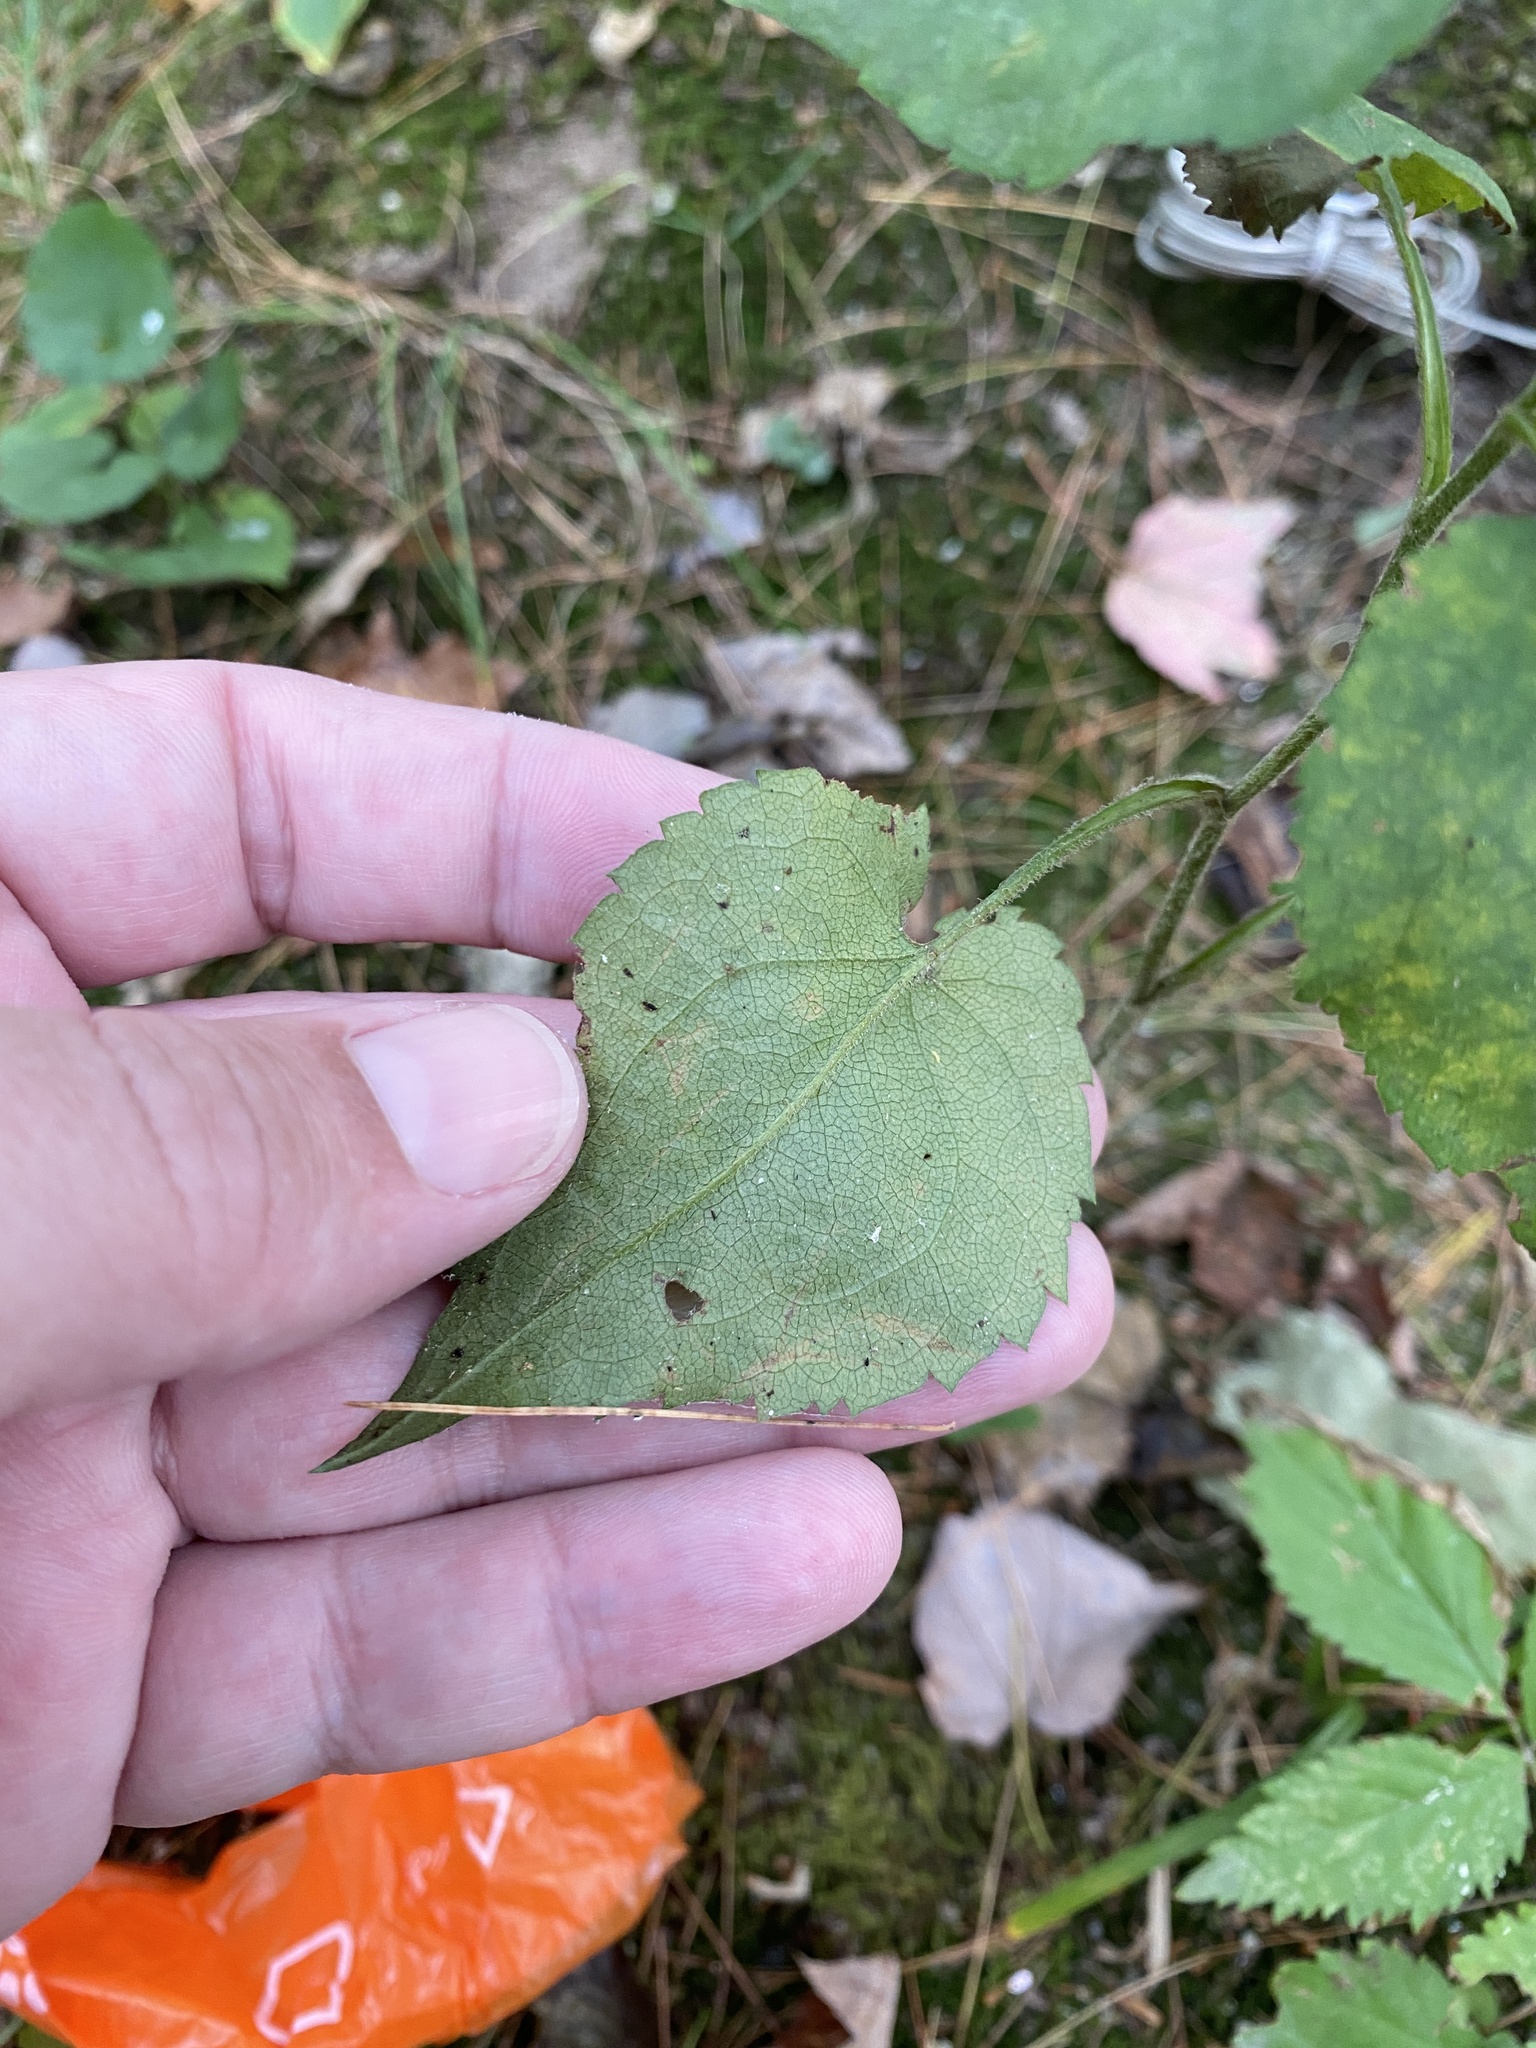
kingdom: Plantae
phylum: Tracheophyta
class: Magnoliopsida
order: Asterales
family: Asteraceae
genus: Symphyotrichum
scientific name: Symphyotrichum cordifolium
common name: Beeweed
